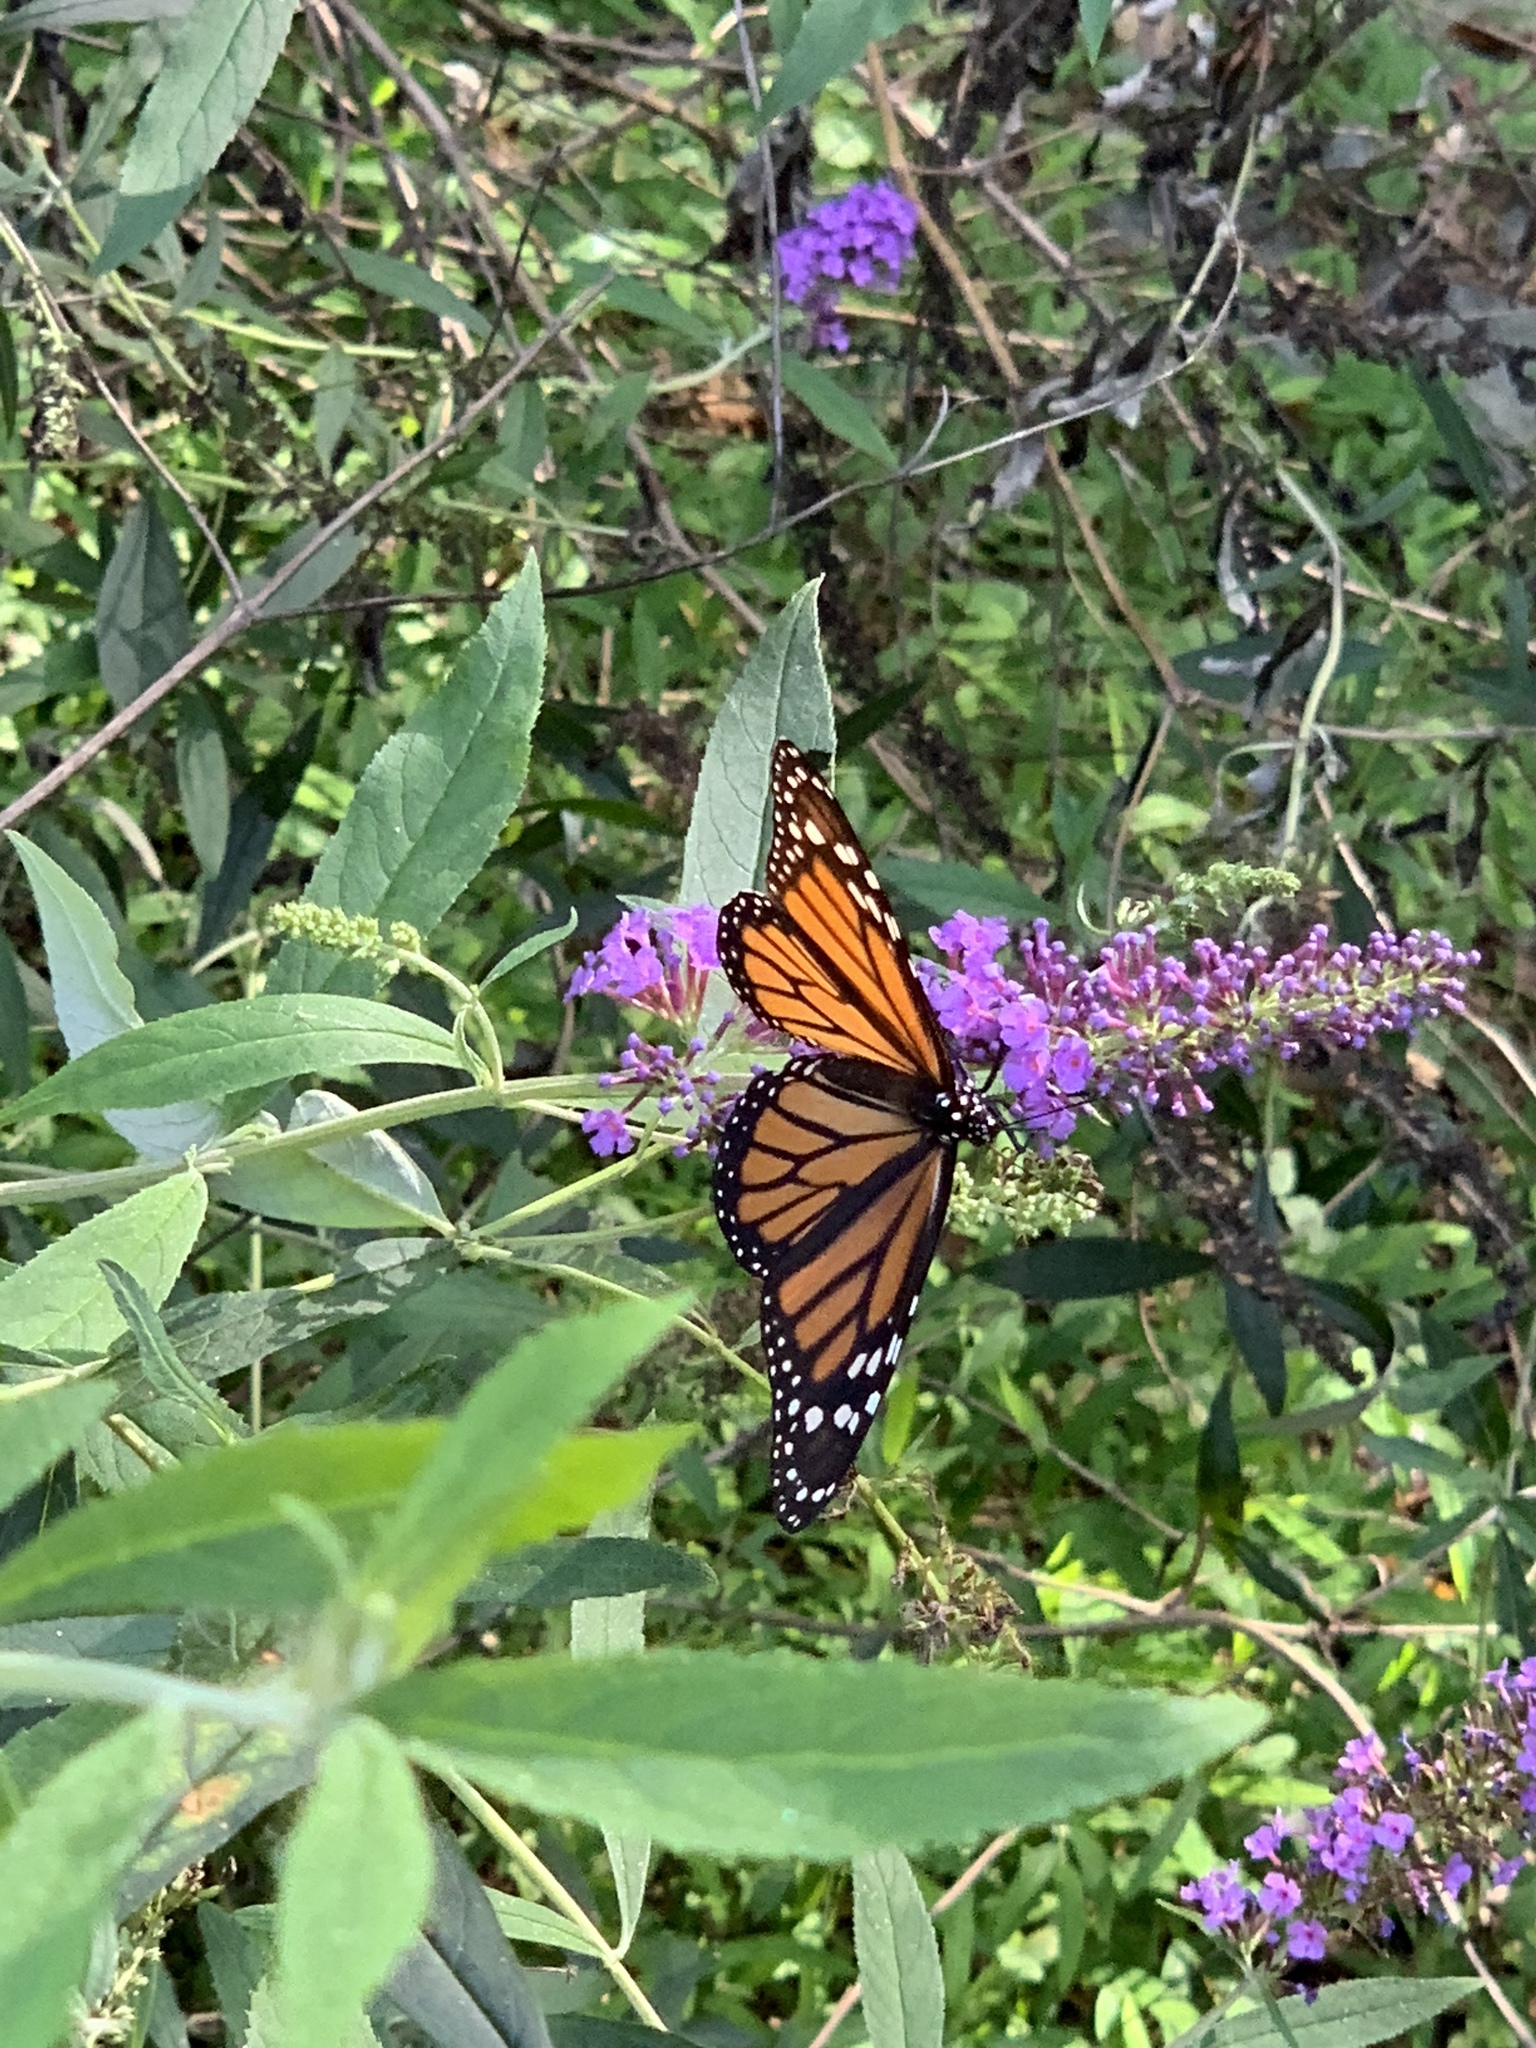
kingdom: Animalia
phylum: Arthropoda
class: Insecta
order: Lepidoptera
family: Nymphalidae
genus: Danaus
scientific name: Danaus plexippus
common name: Monarch
